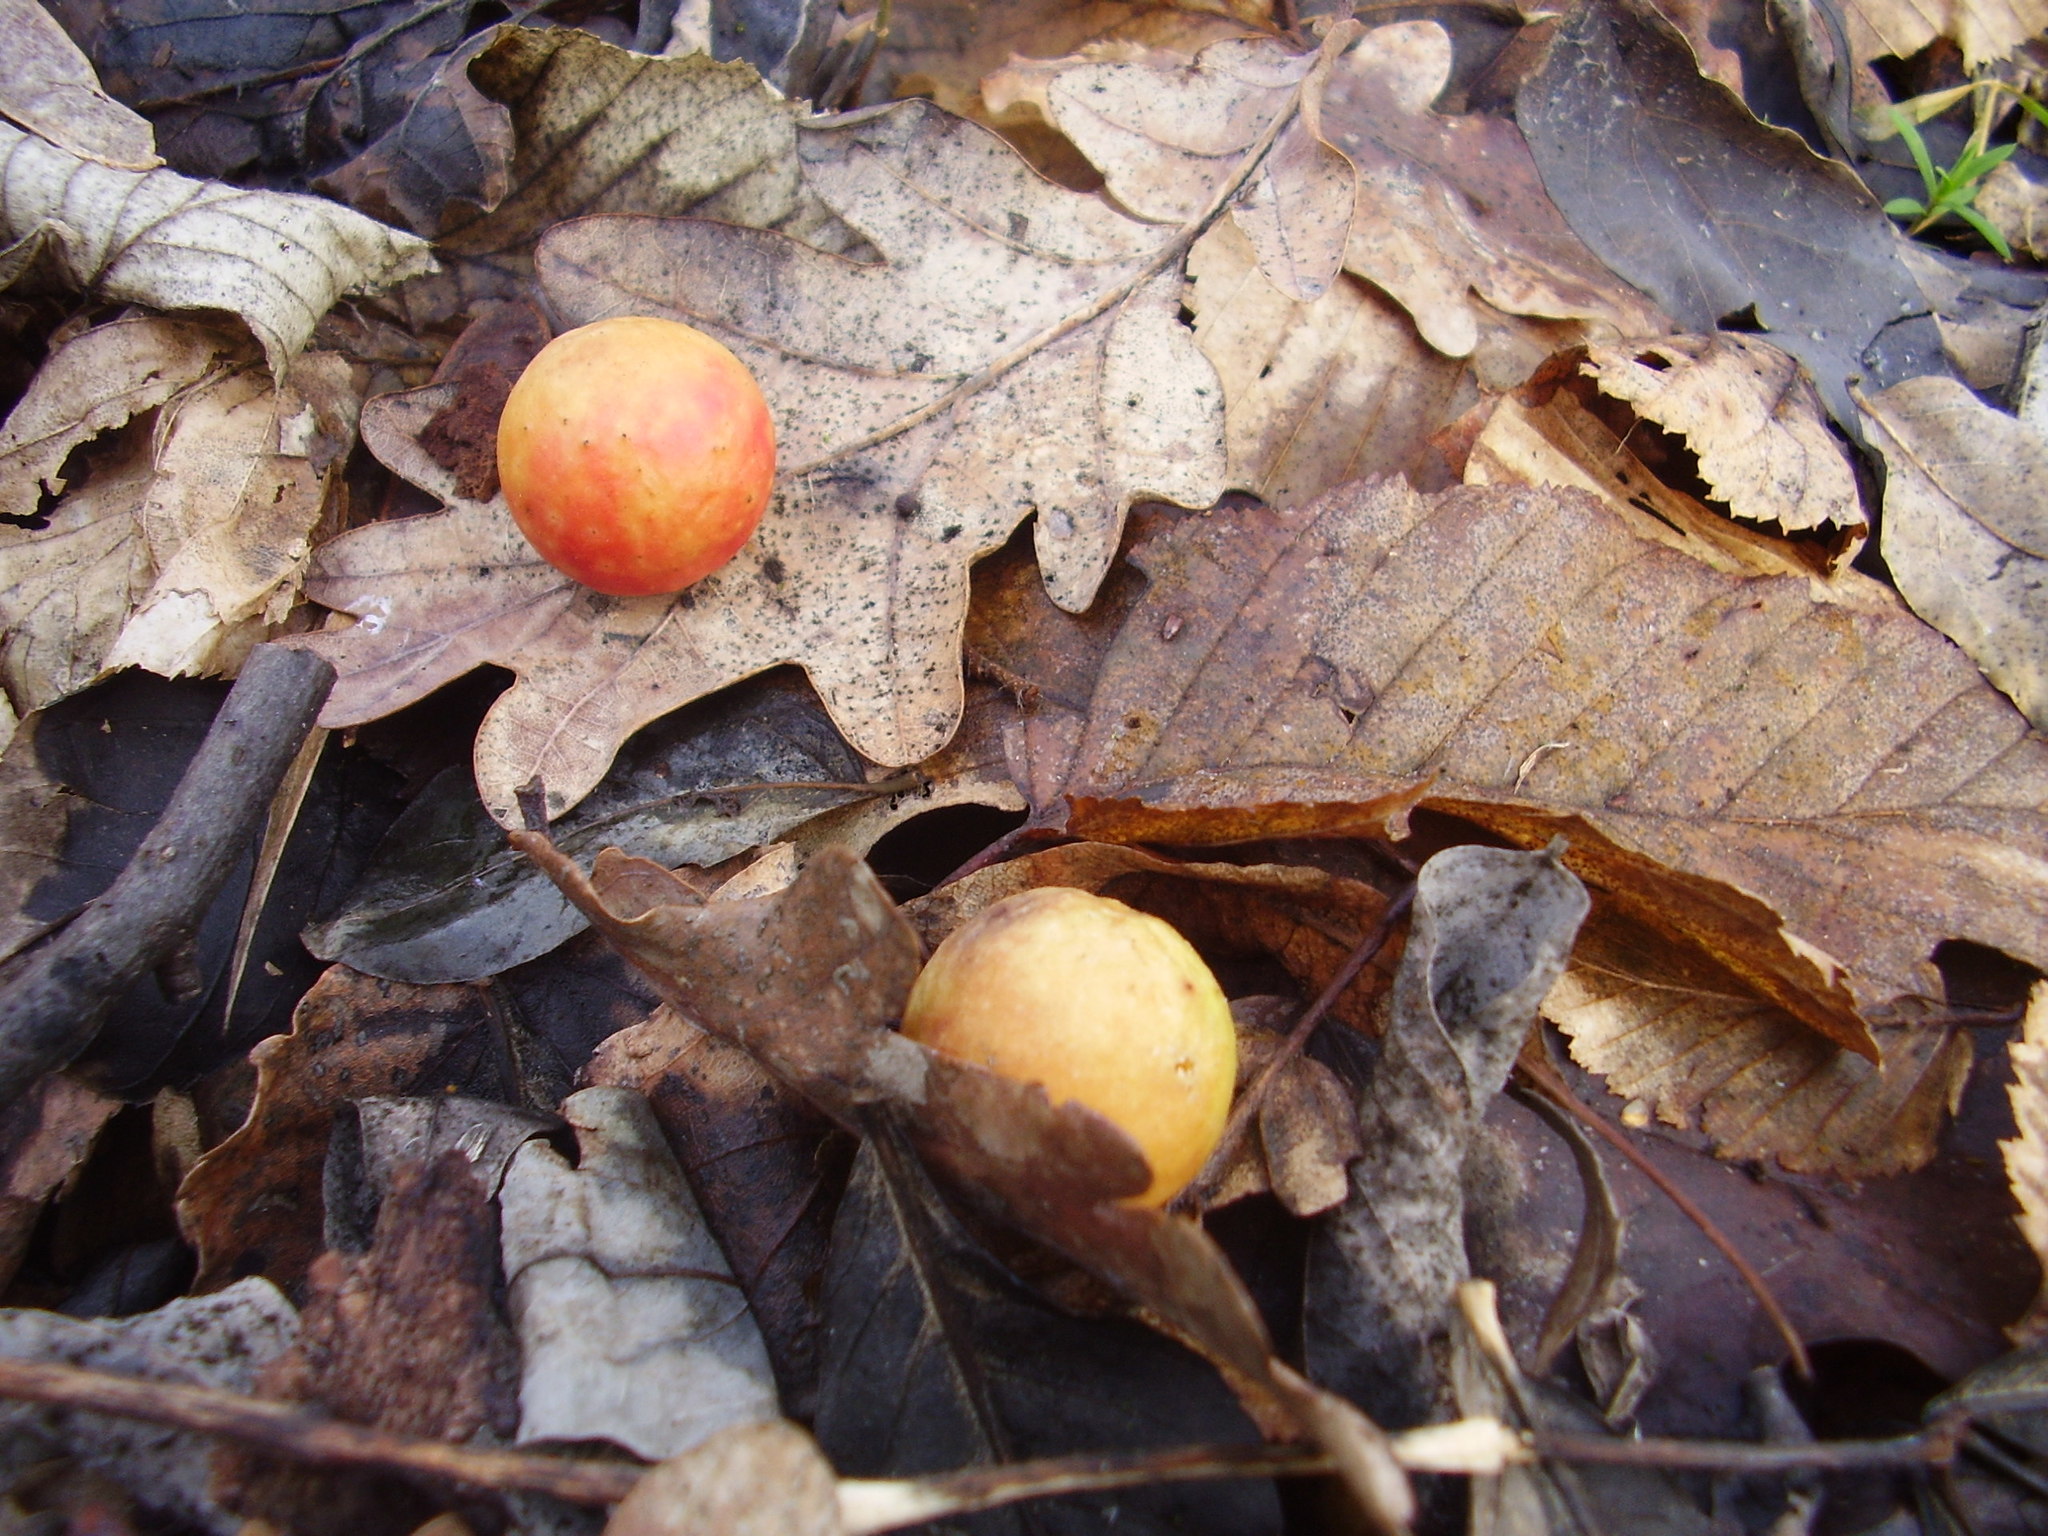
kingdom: Animalia
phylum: Arthropoda
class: Insecta
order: Hymenoptera
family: Cynipidae
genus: Cynips
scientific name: Cynips quercusfolii
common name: Cherry gall
